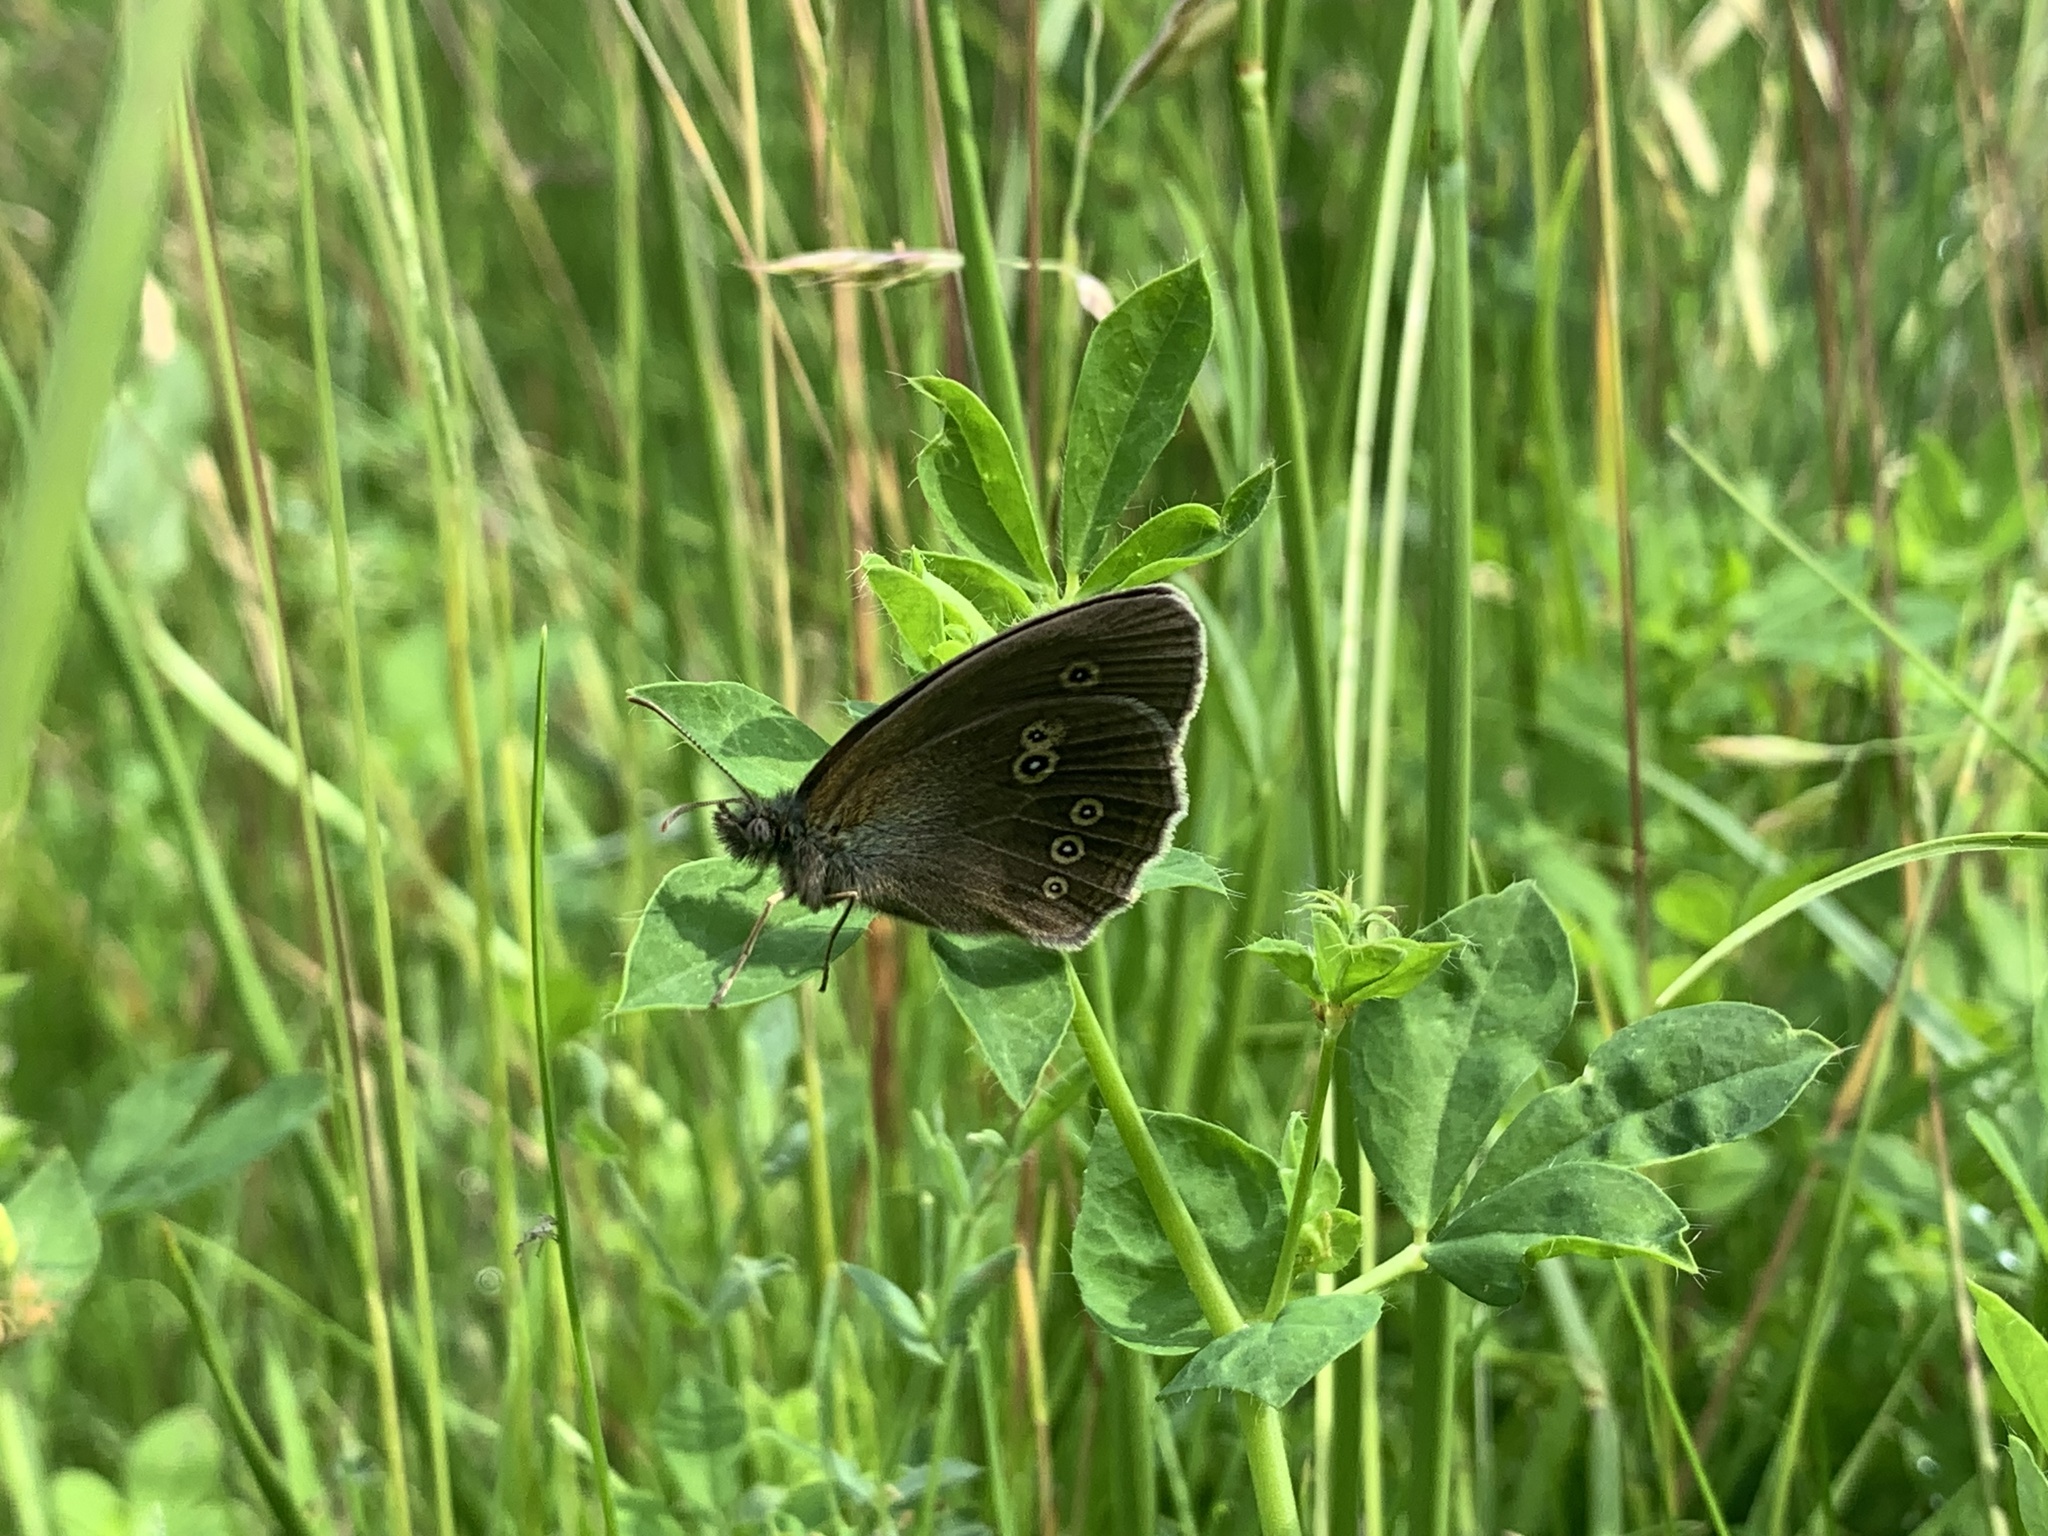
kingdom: Animalia
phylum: Arthropoda
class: Insecta
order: Lepidoptera
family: Nymphalidae
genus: Aphantopus
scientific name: Aphantopus hyperantus
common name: Ringlet
